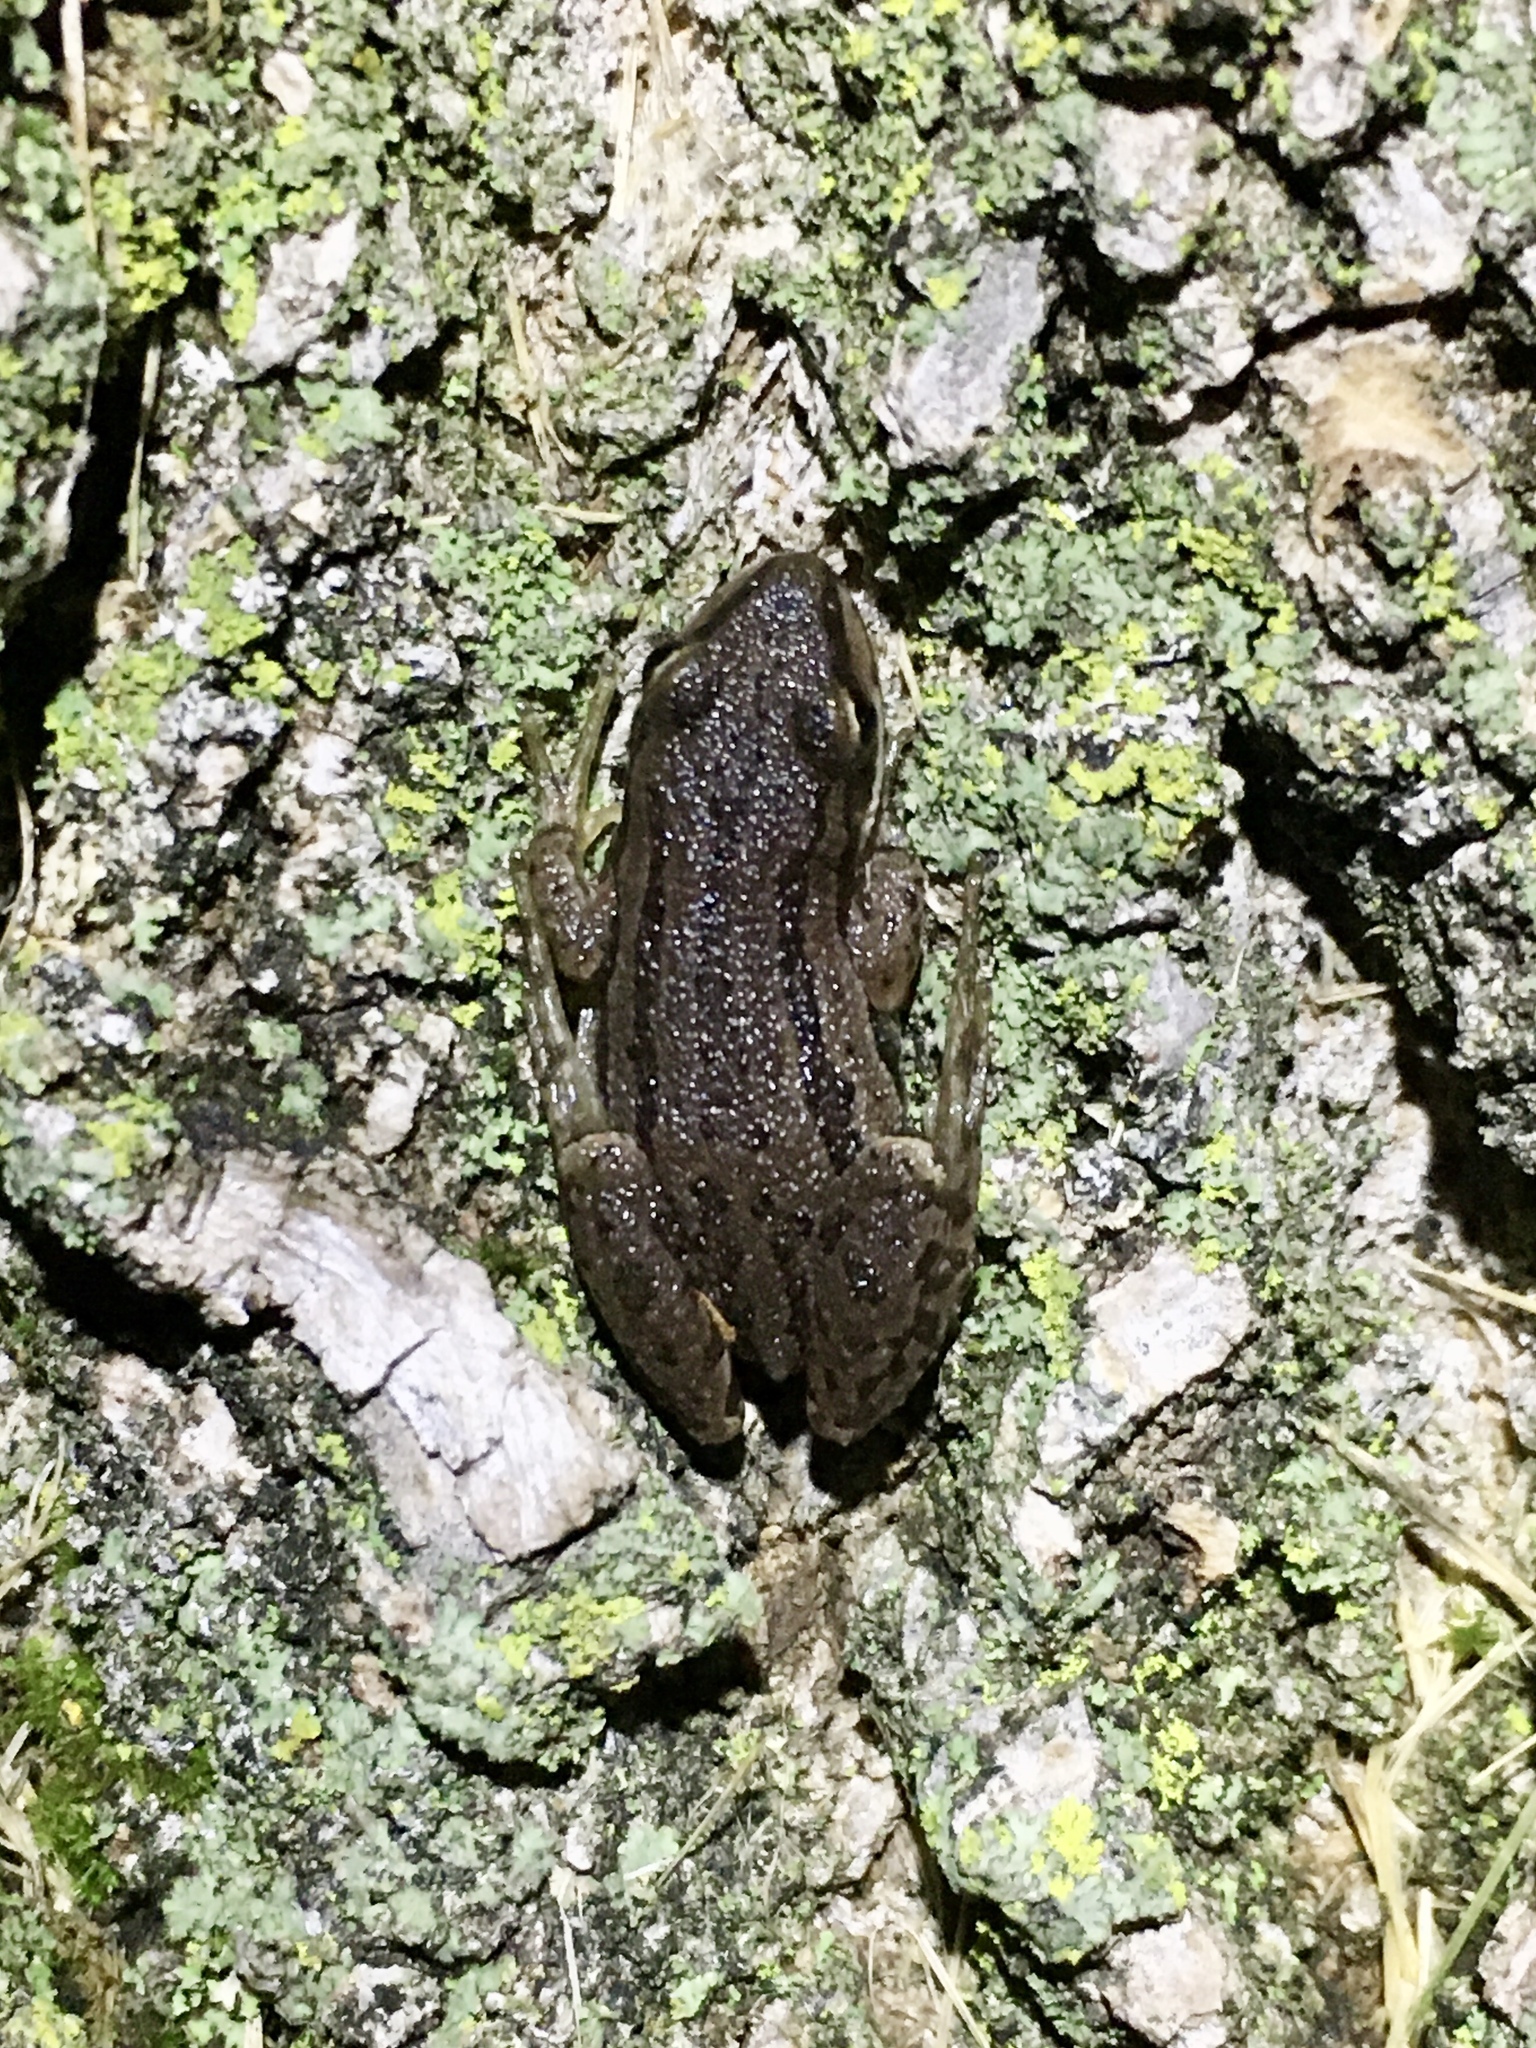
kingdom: Animalia
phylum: Chordata
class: Amphibia
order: Anura
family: Hylidae
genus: Pseudacris
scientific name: Pseudacris maculata
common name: Boreal chorus frog
